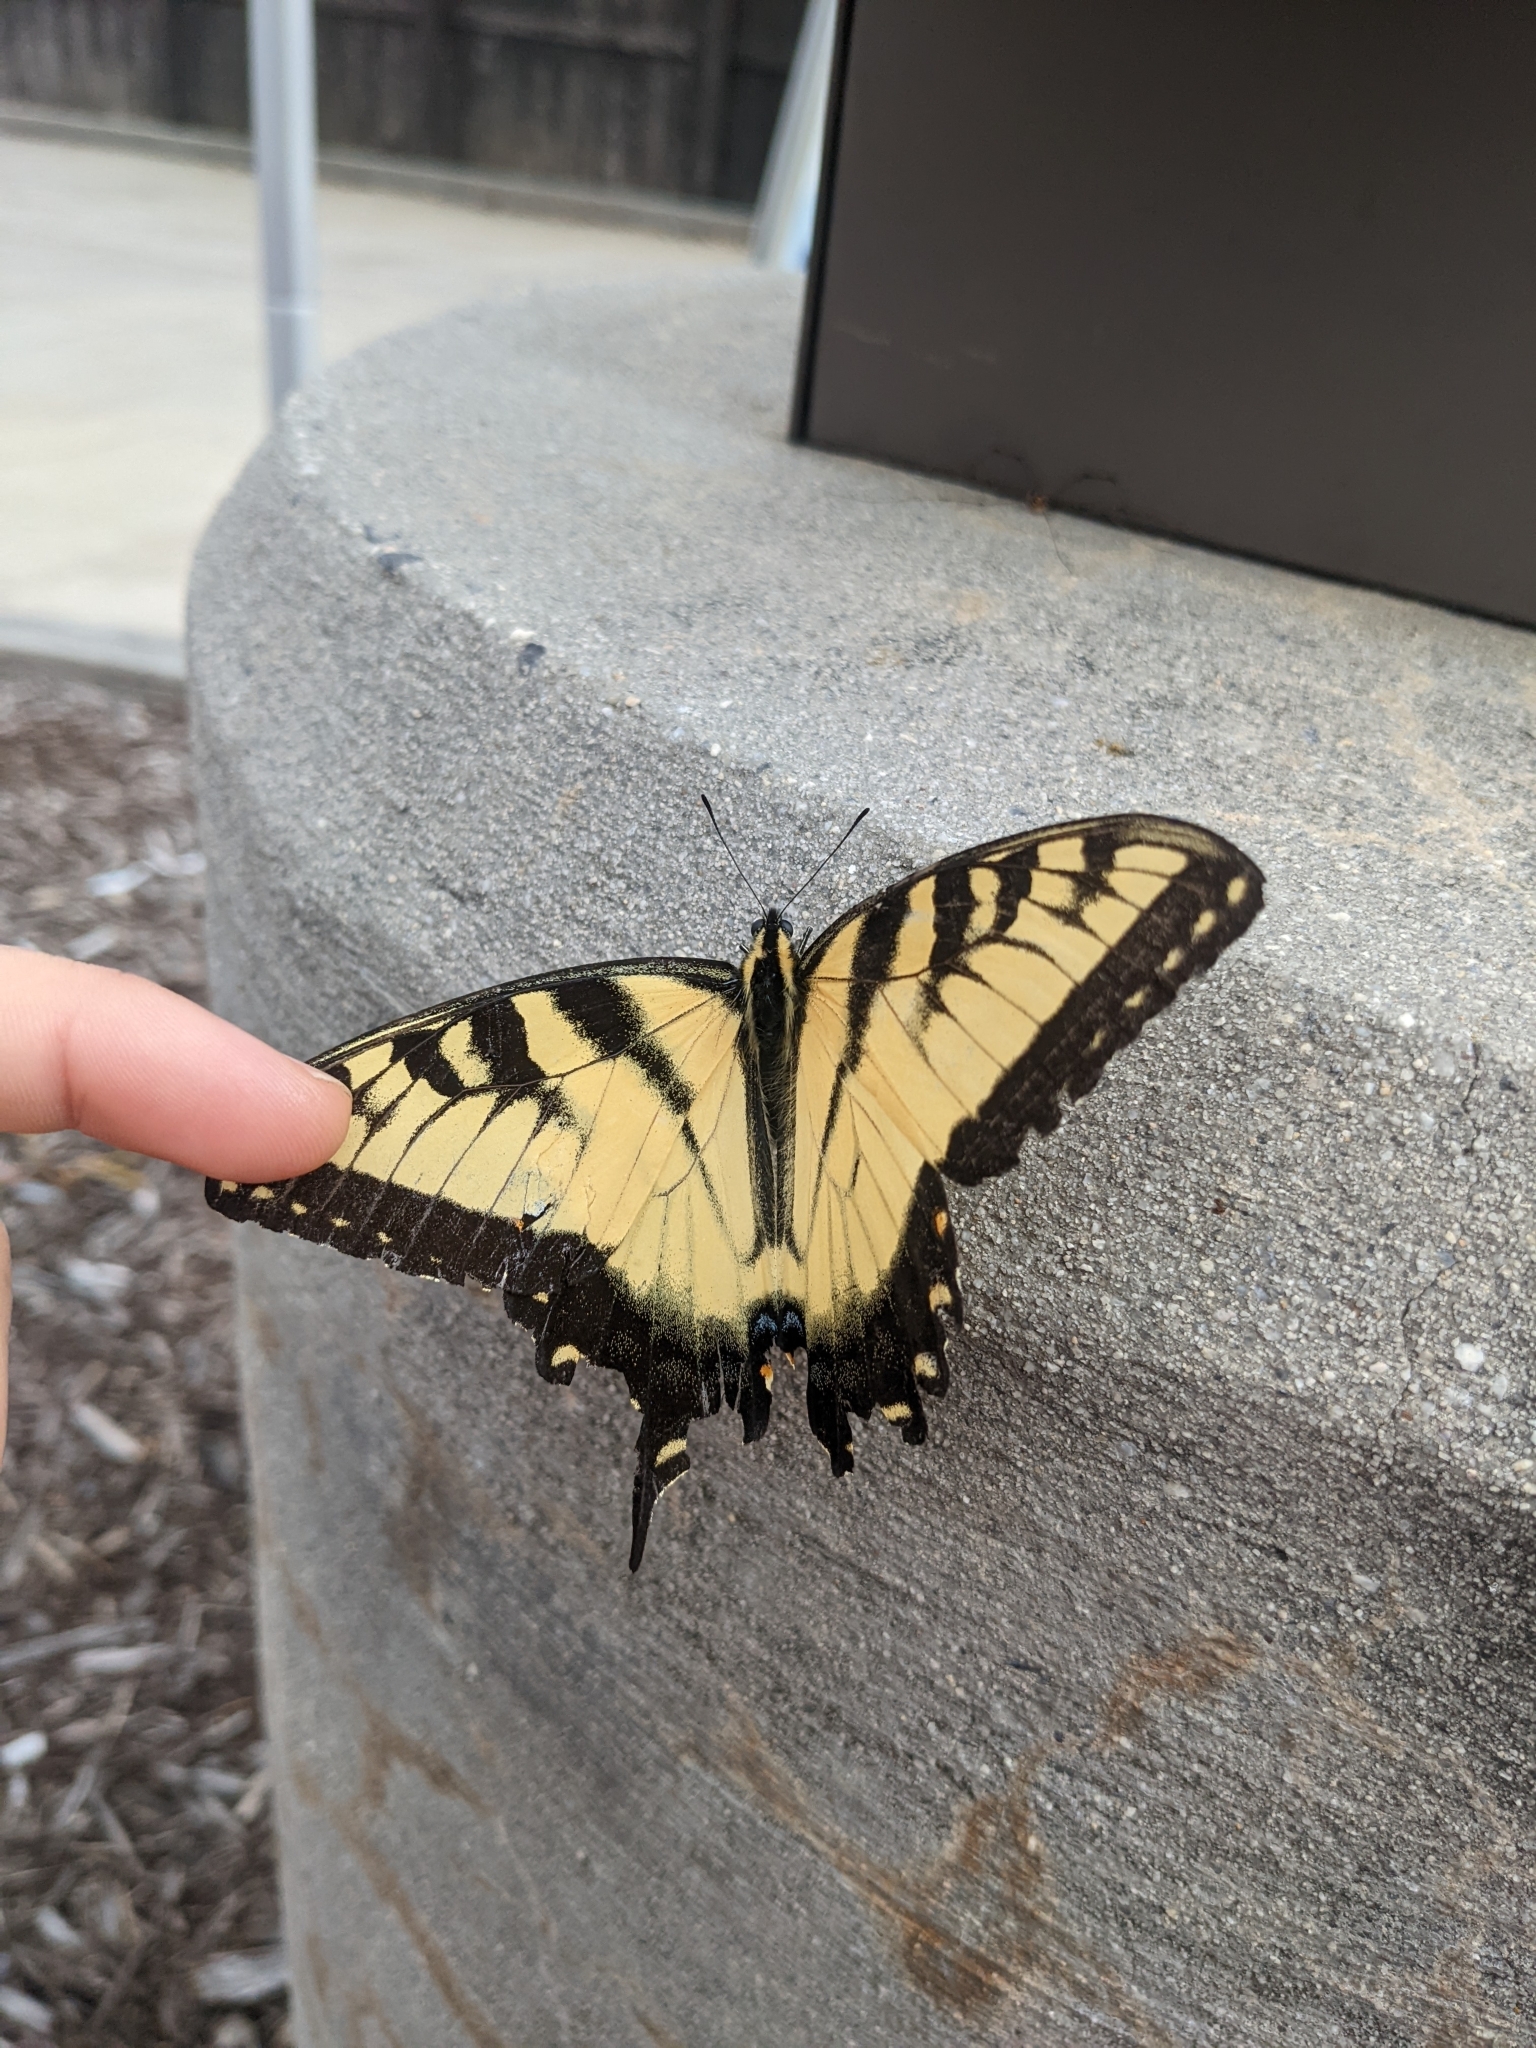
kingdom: Animalia
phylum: Arthropoda
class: Insecta
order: Lepidoptera
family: Papilionidae
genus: Papilio
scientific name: Papilio glaucus
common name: Tiger swallowtail
